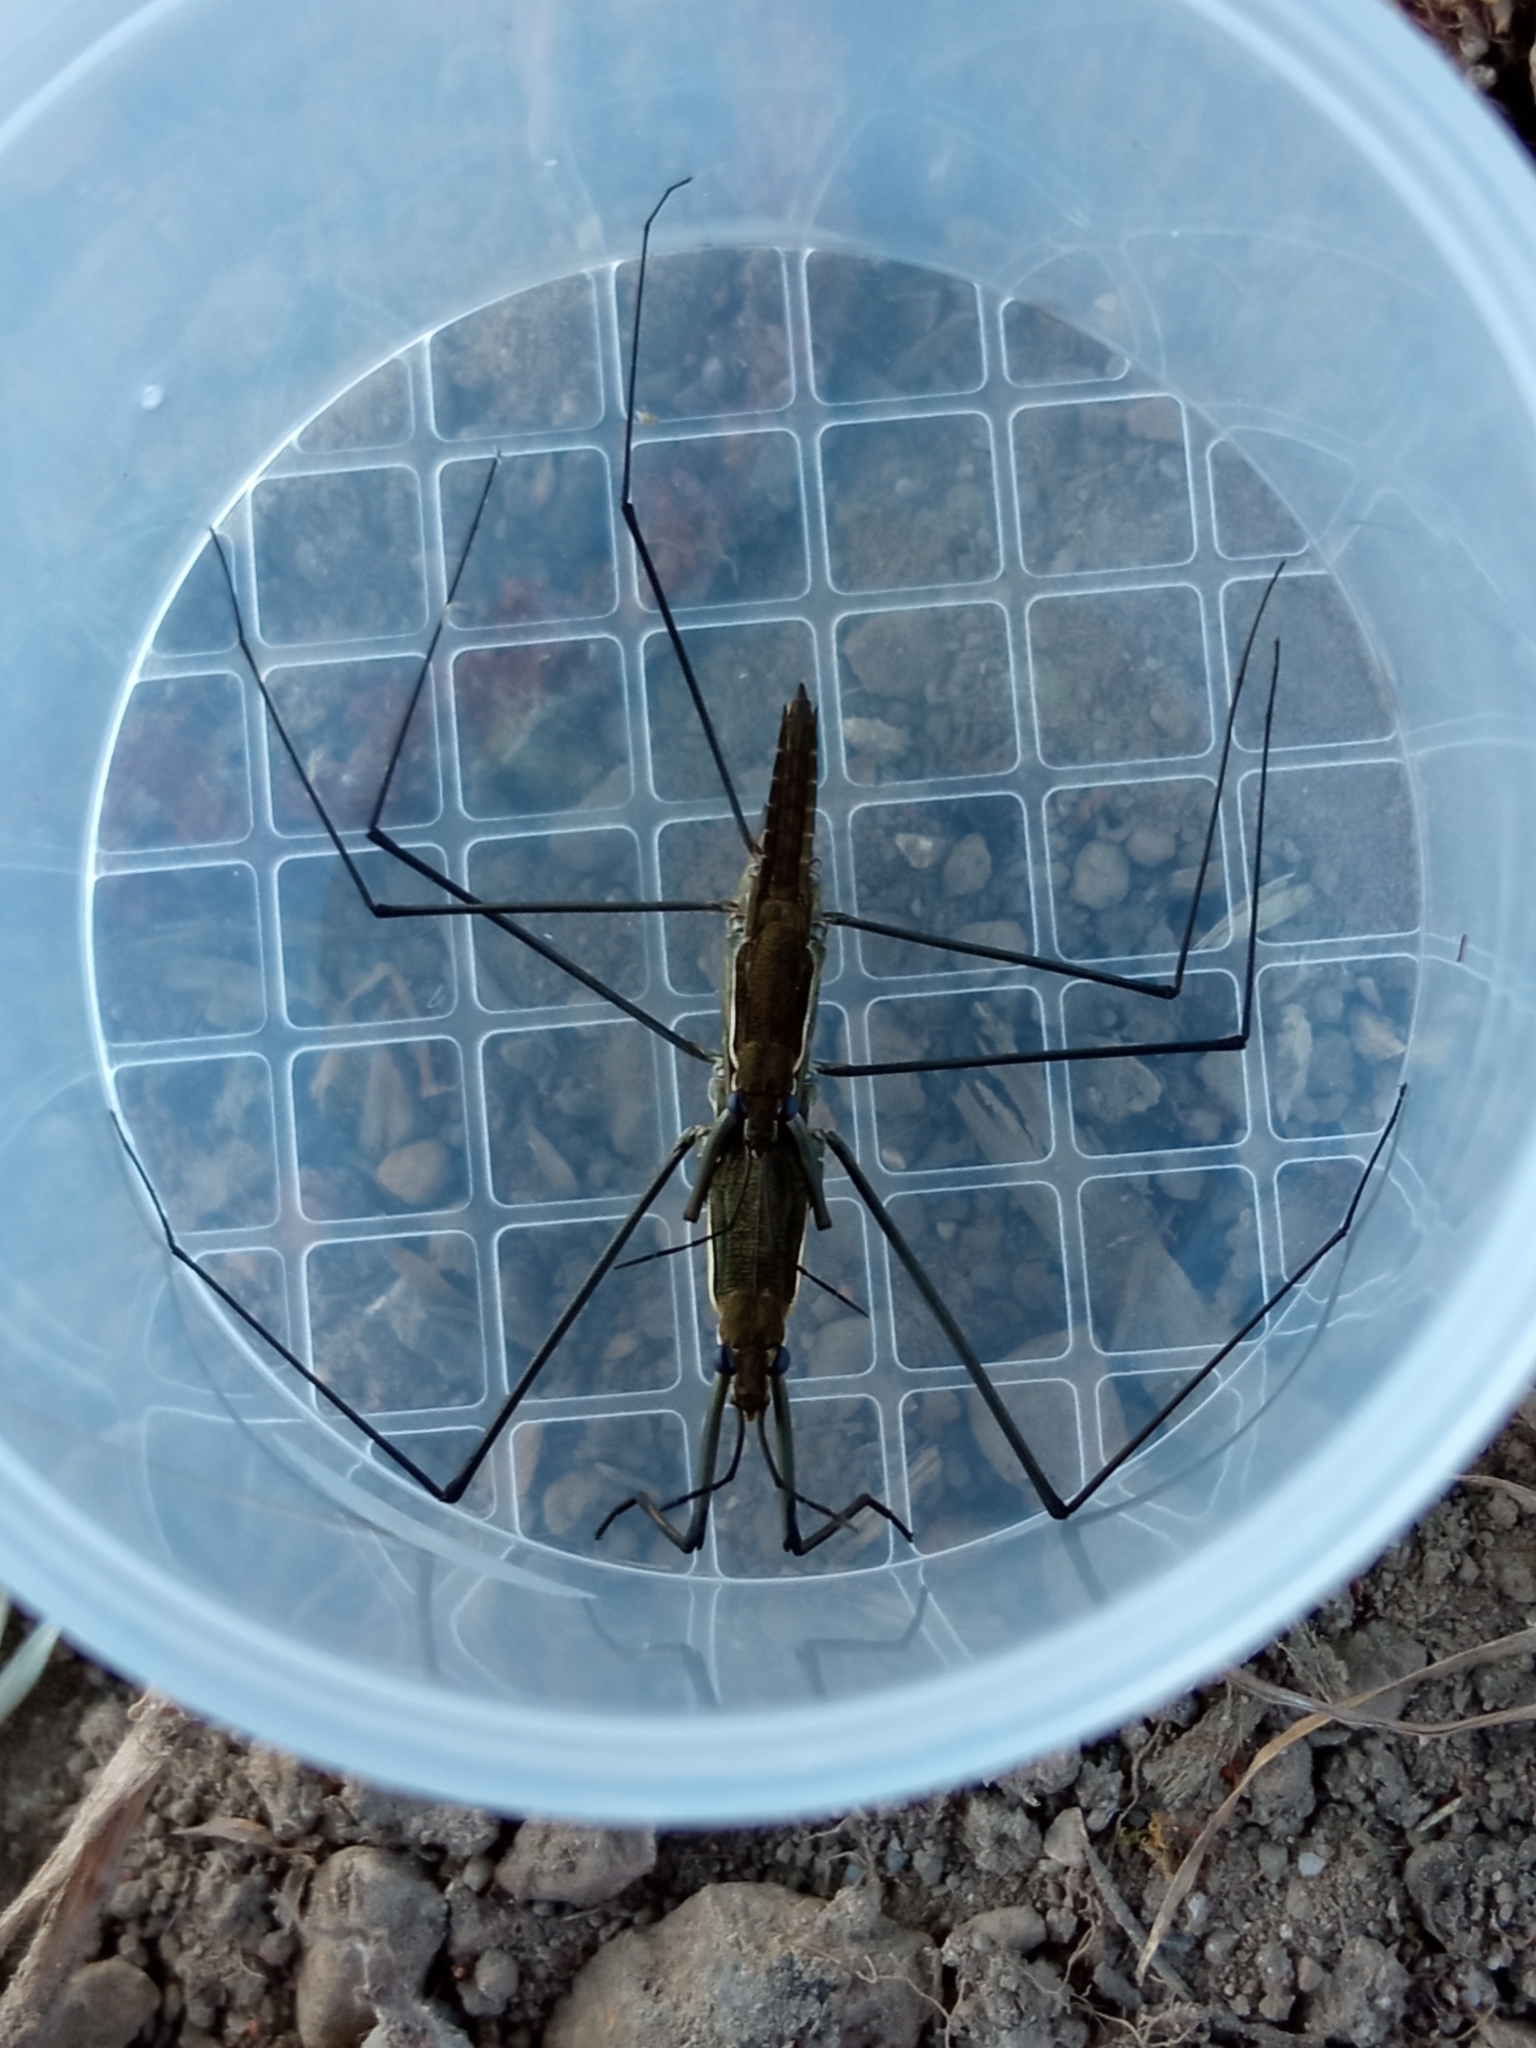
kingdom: Animalia
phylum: Arthropoda
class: Insecta
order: Hemiptera
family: Gerridae
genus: Aquarius
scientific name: Aquarius najas
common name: River skater
